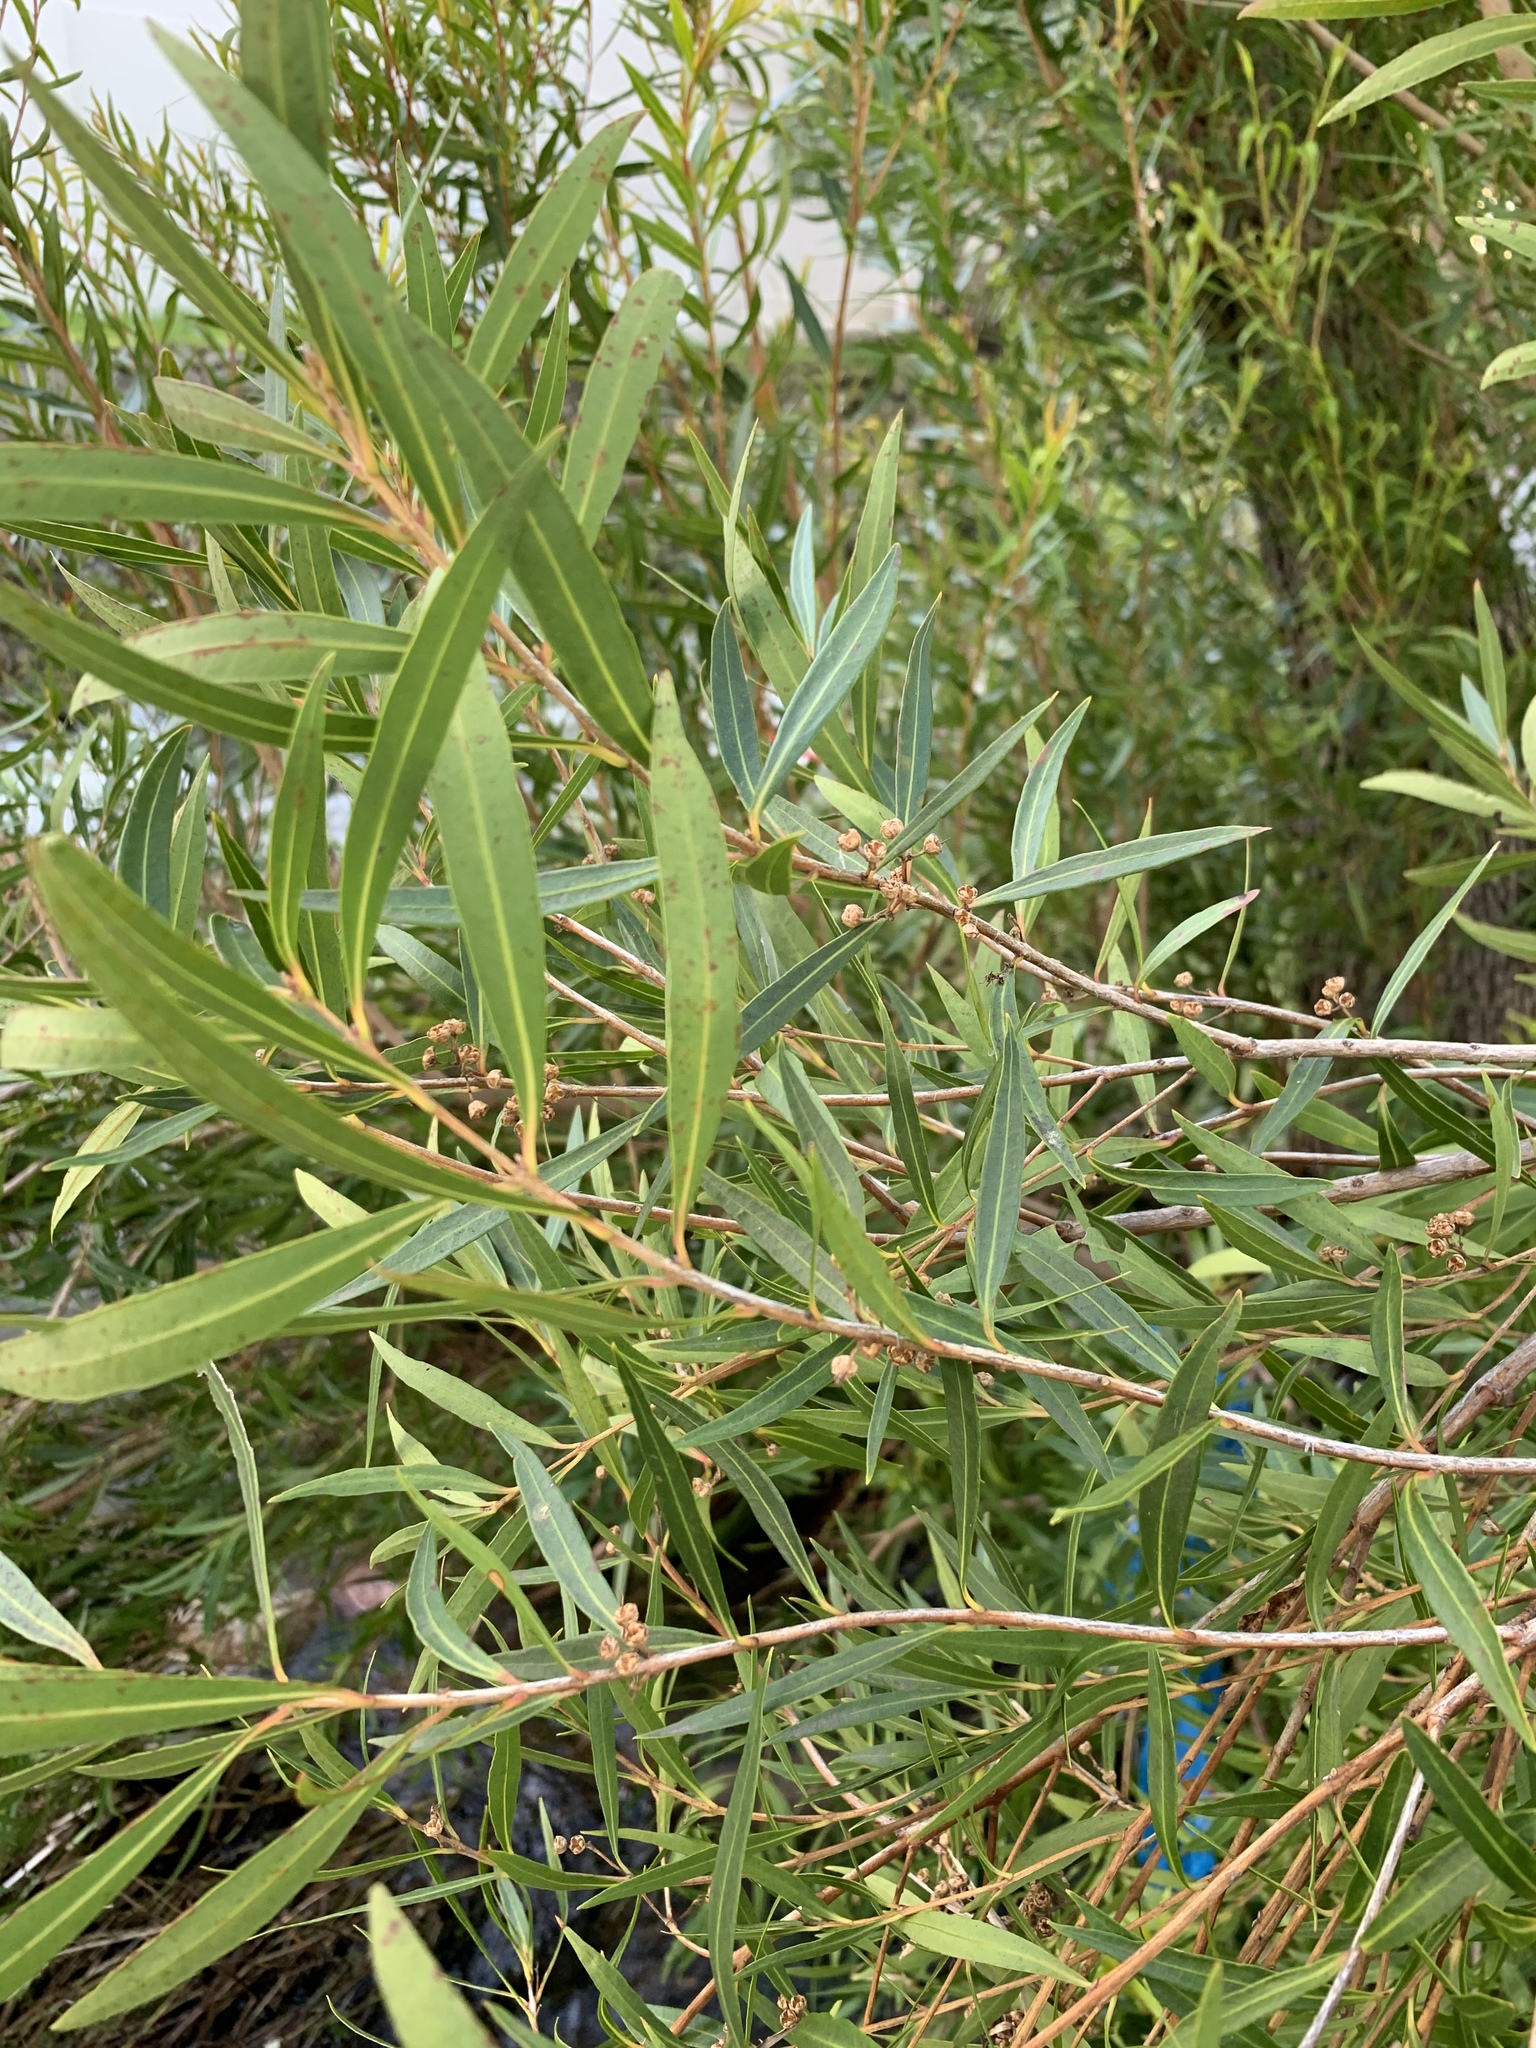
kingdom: Plantae
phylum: Tracheophyta
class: Magnoliopsida
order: Myrtales
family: Myrtaceae
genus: Callistemon
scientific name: Callistemon lanceolatus
